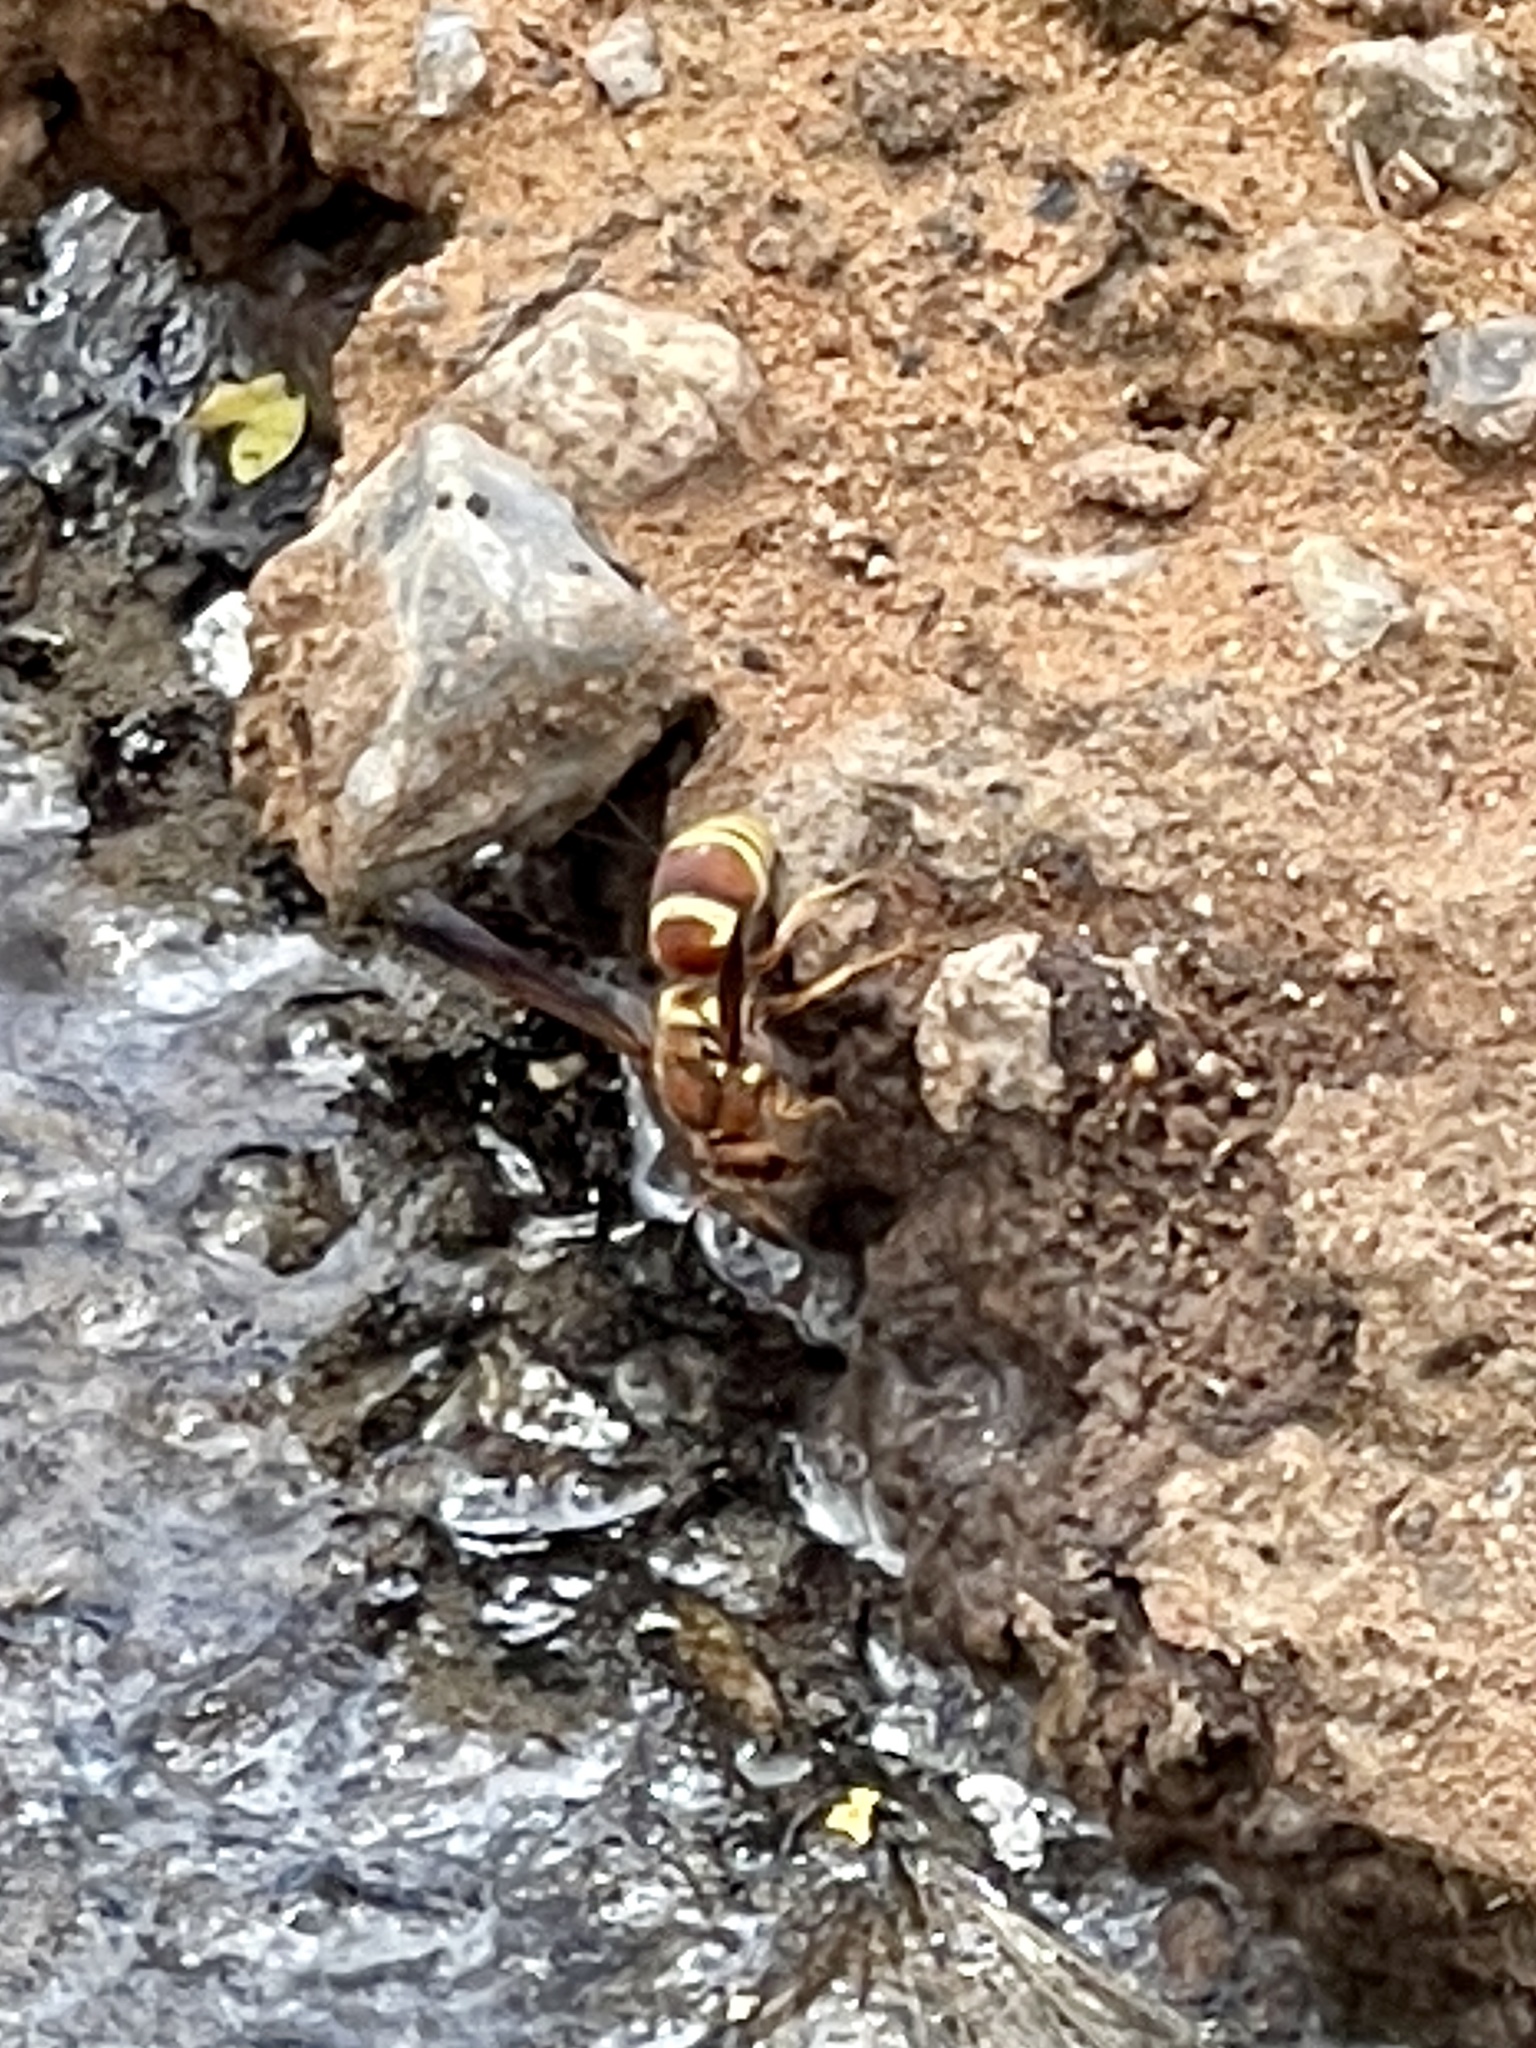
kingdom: Animalia
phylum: Arthropoda
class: Insecta
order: Hymenoptera
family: Eumenidae
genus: Euodynerus
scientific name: Euodynerus
